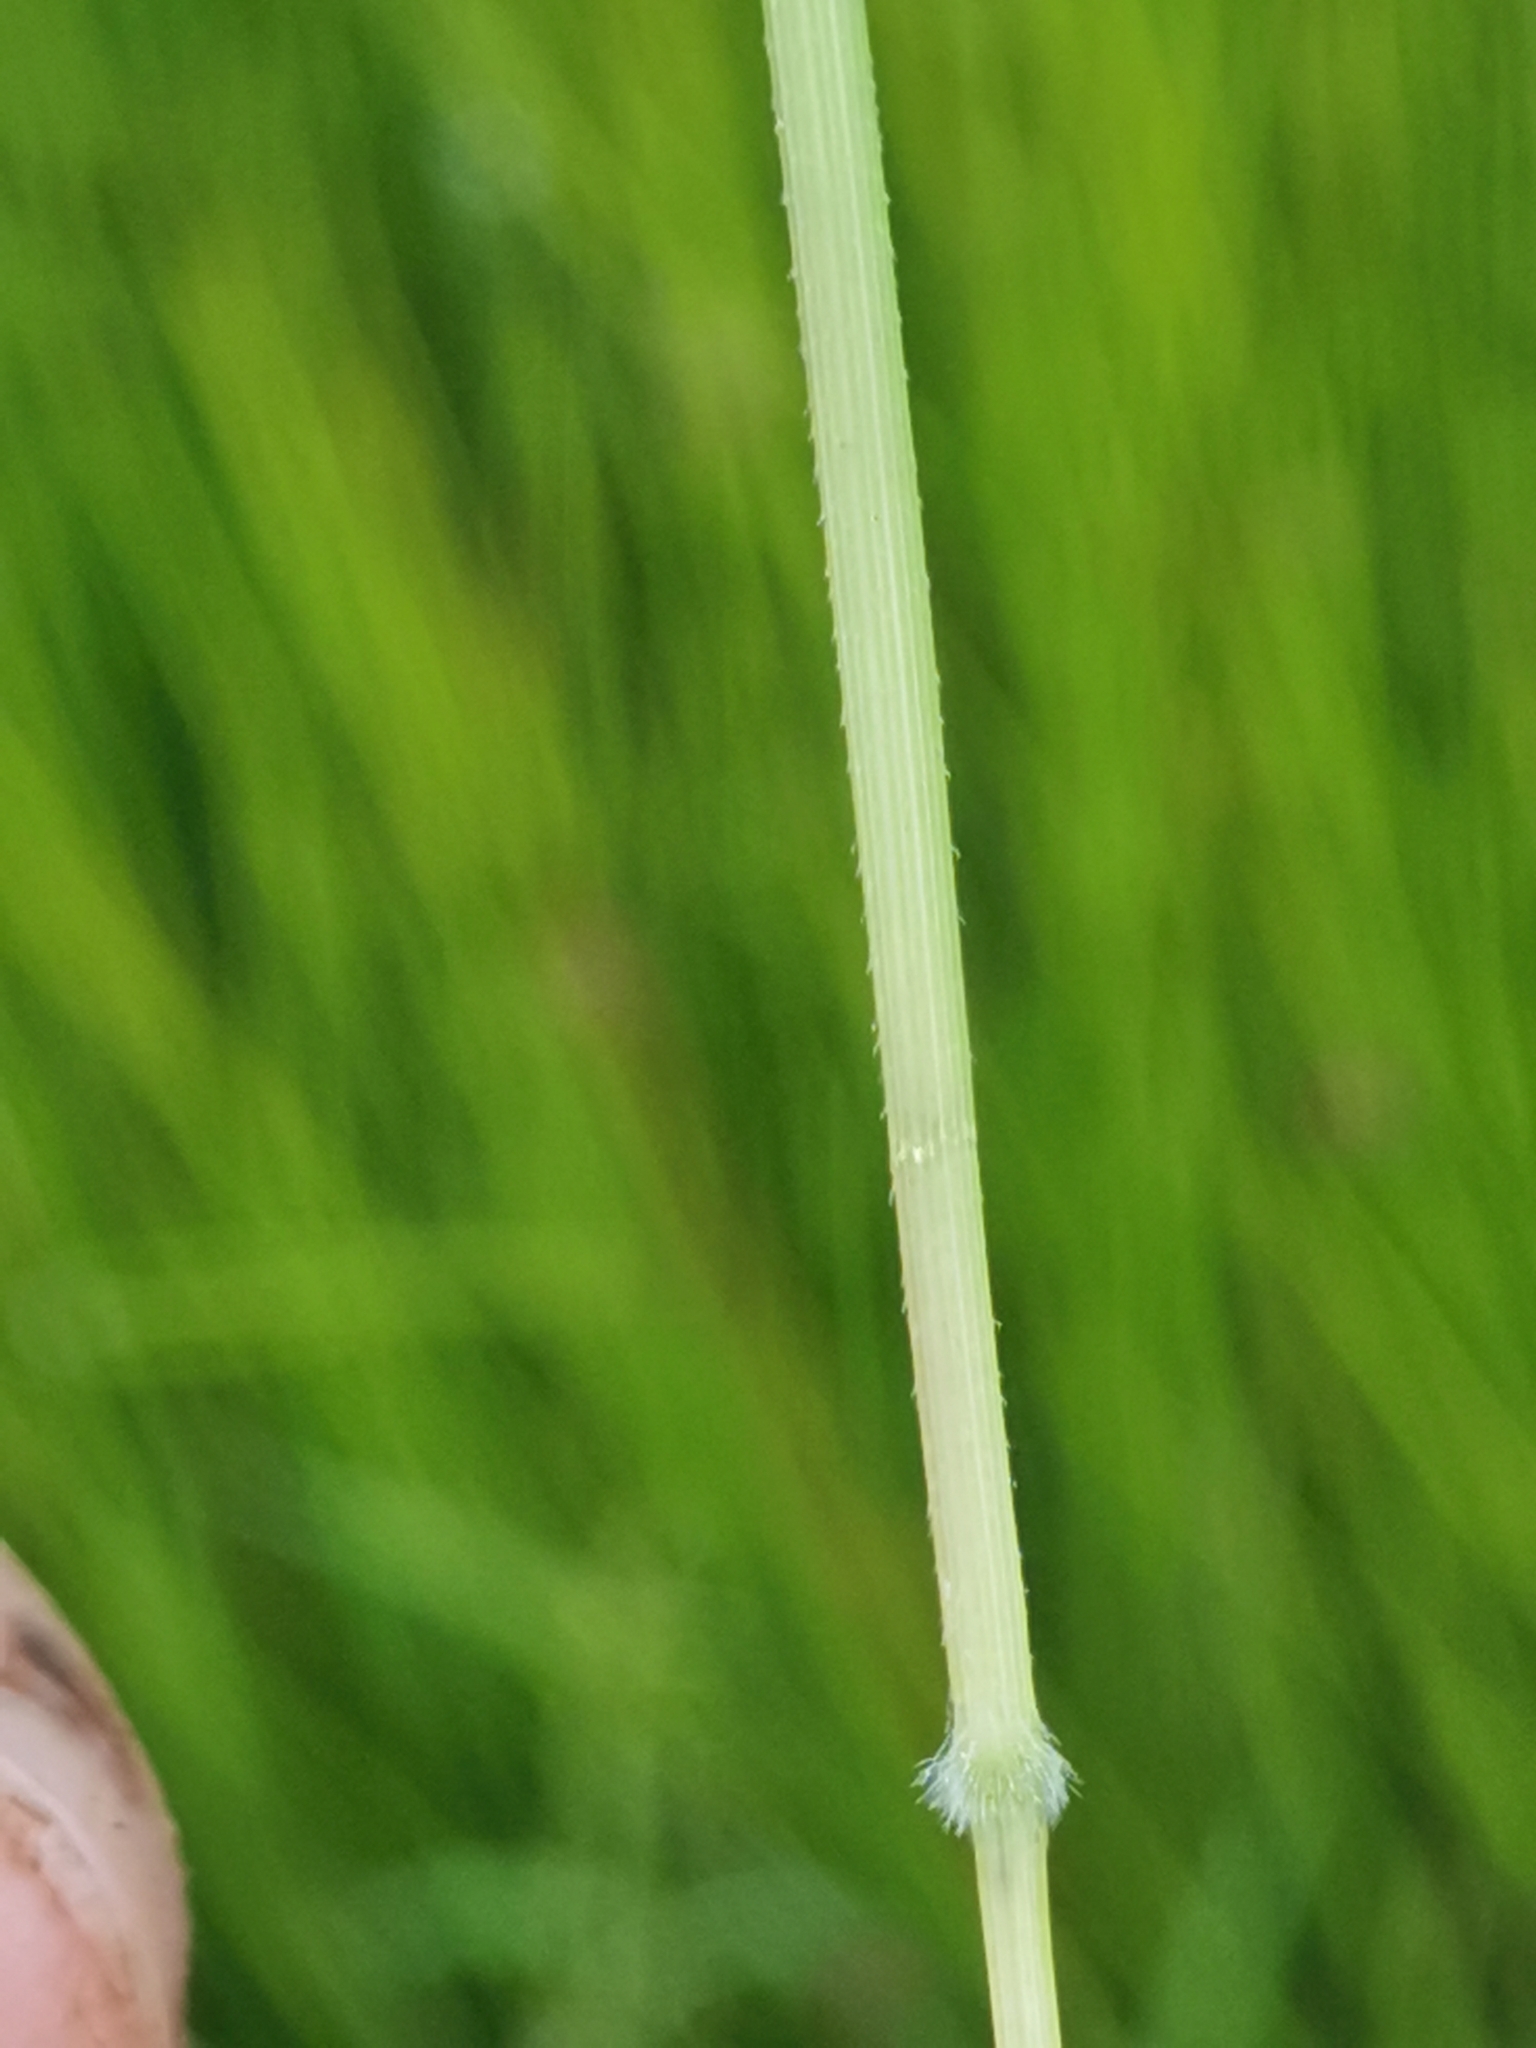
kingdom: Plantae
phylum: Tracheophyta
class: Liliopsida
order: Poales
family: Poaceae
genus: Leersia
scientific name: Leersia oryzoides
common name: Cut-grass
